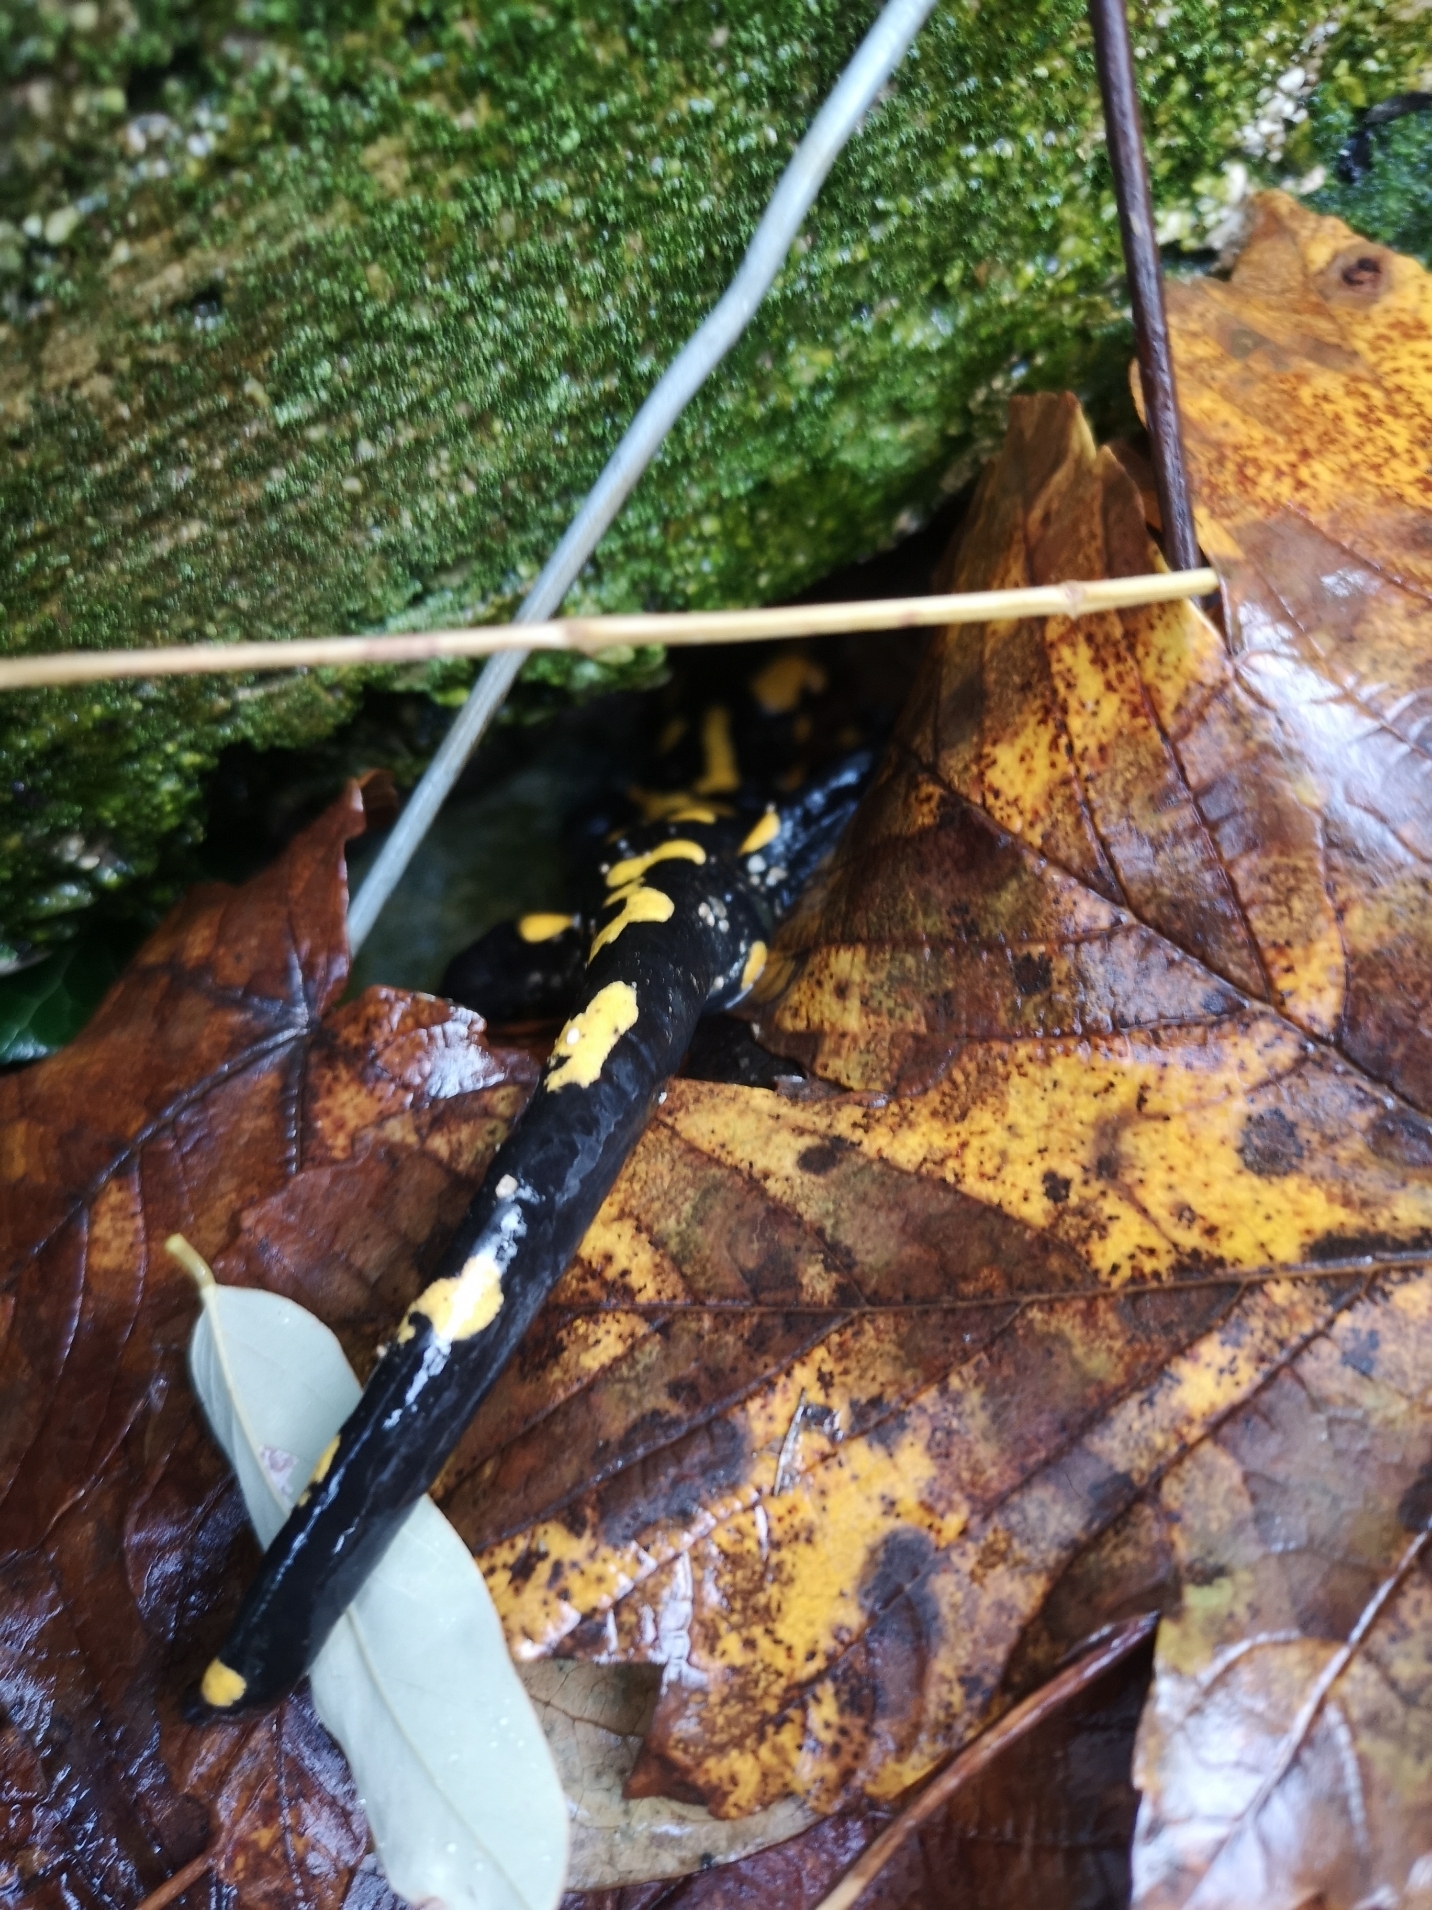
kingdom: Animalia
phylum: Chordata
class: Amphibia
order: Caudata
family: Salamandridae
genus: Salamandra
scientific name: Salamandra salamandra
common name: Fire salamander
